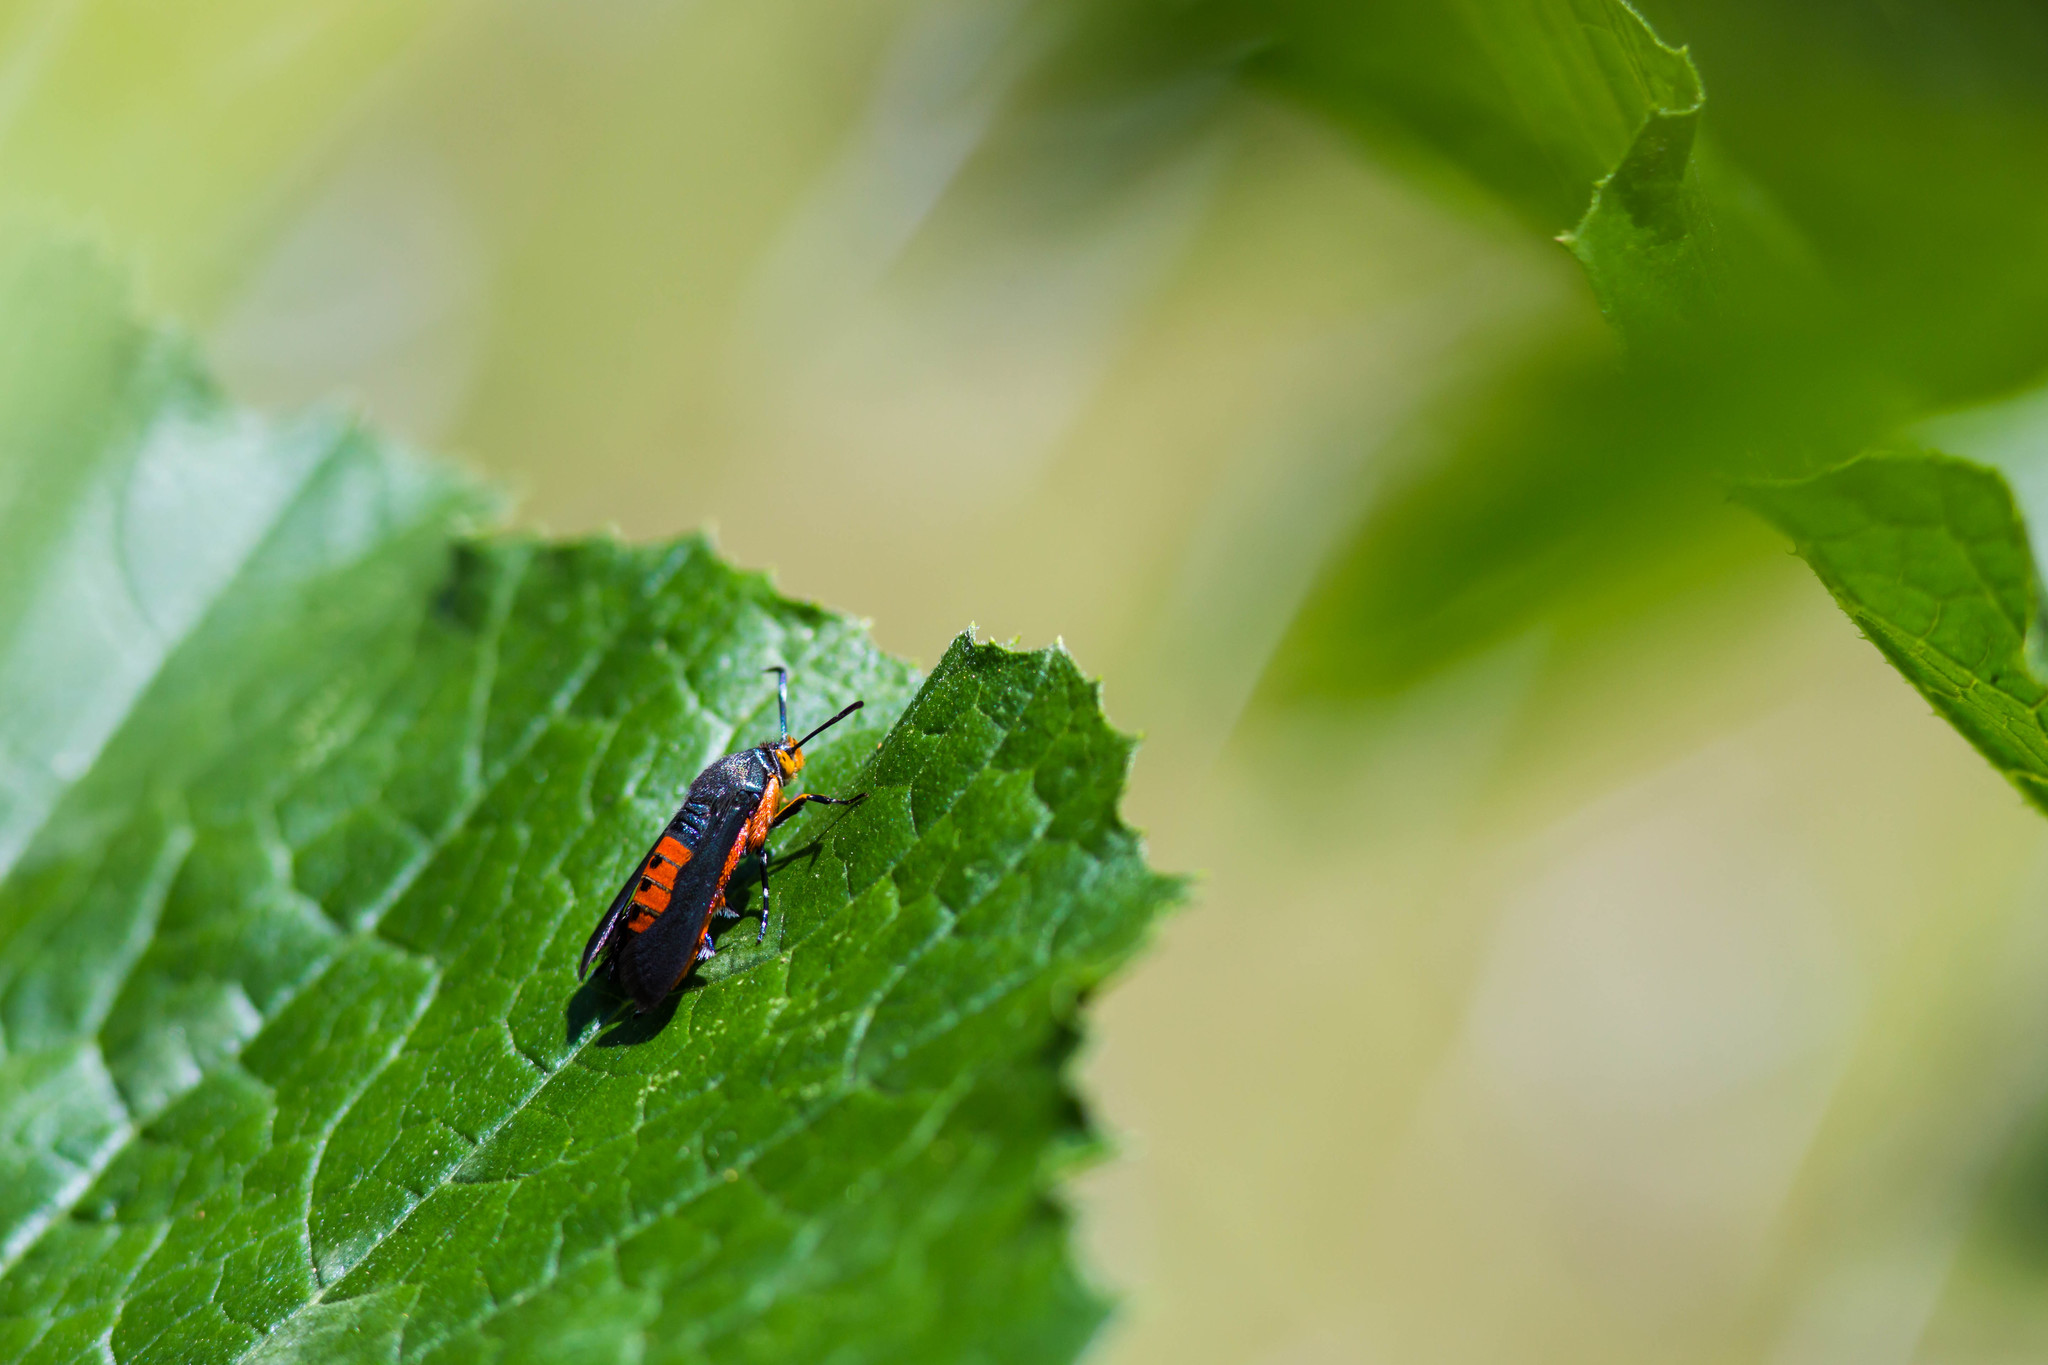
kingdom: Animalia
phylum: Arthropoda
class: Insecta
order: Lepidoptera
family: Sesiidae
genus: Eichlinia
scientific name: Eichlinia cucurbitae
